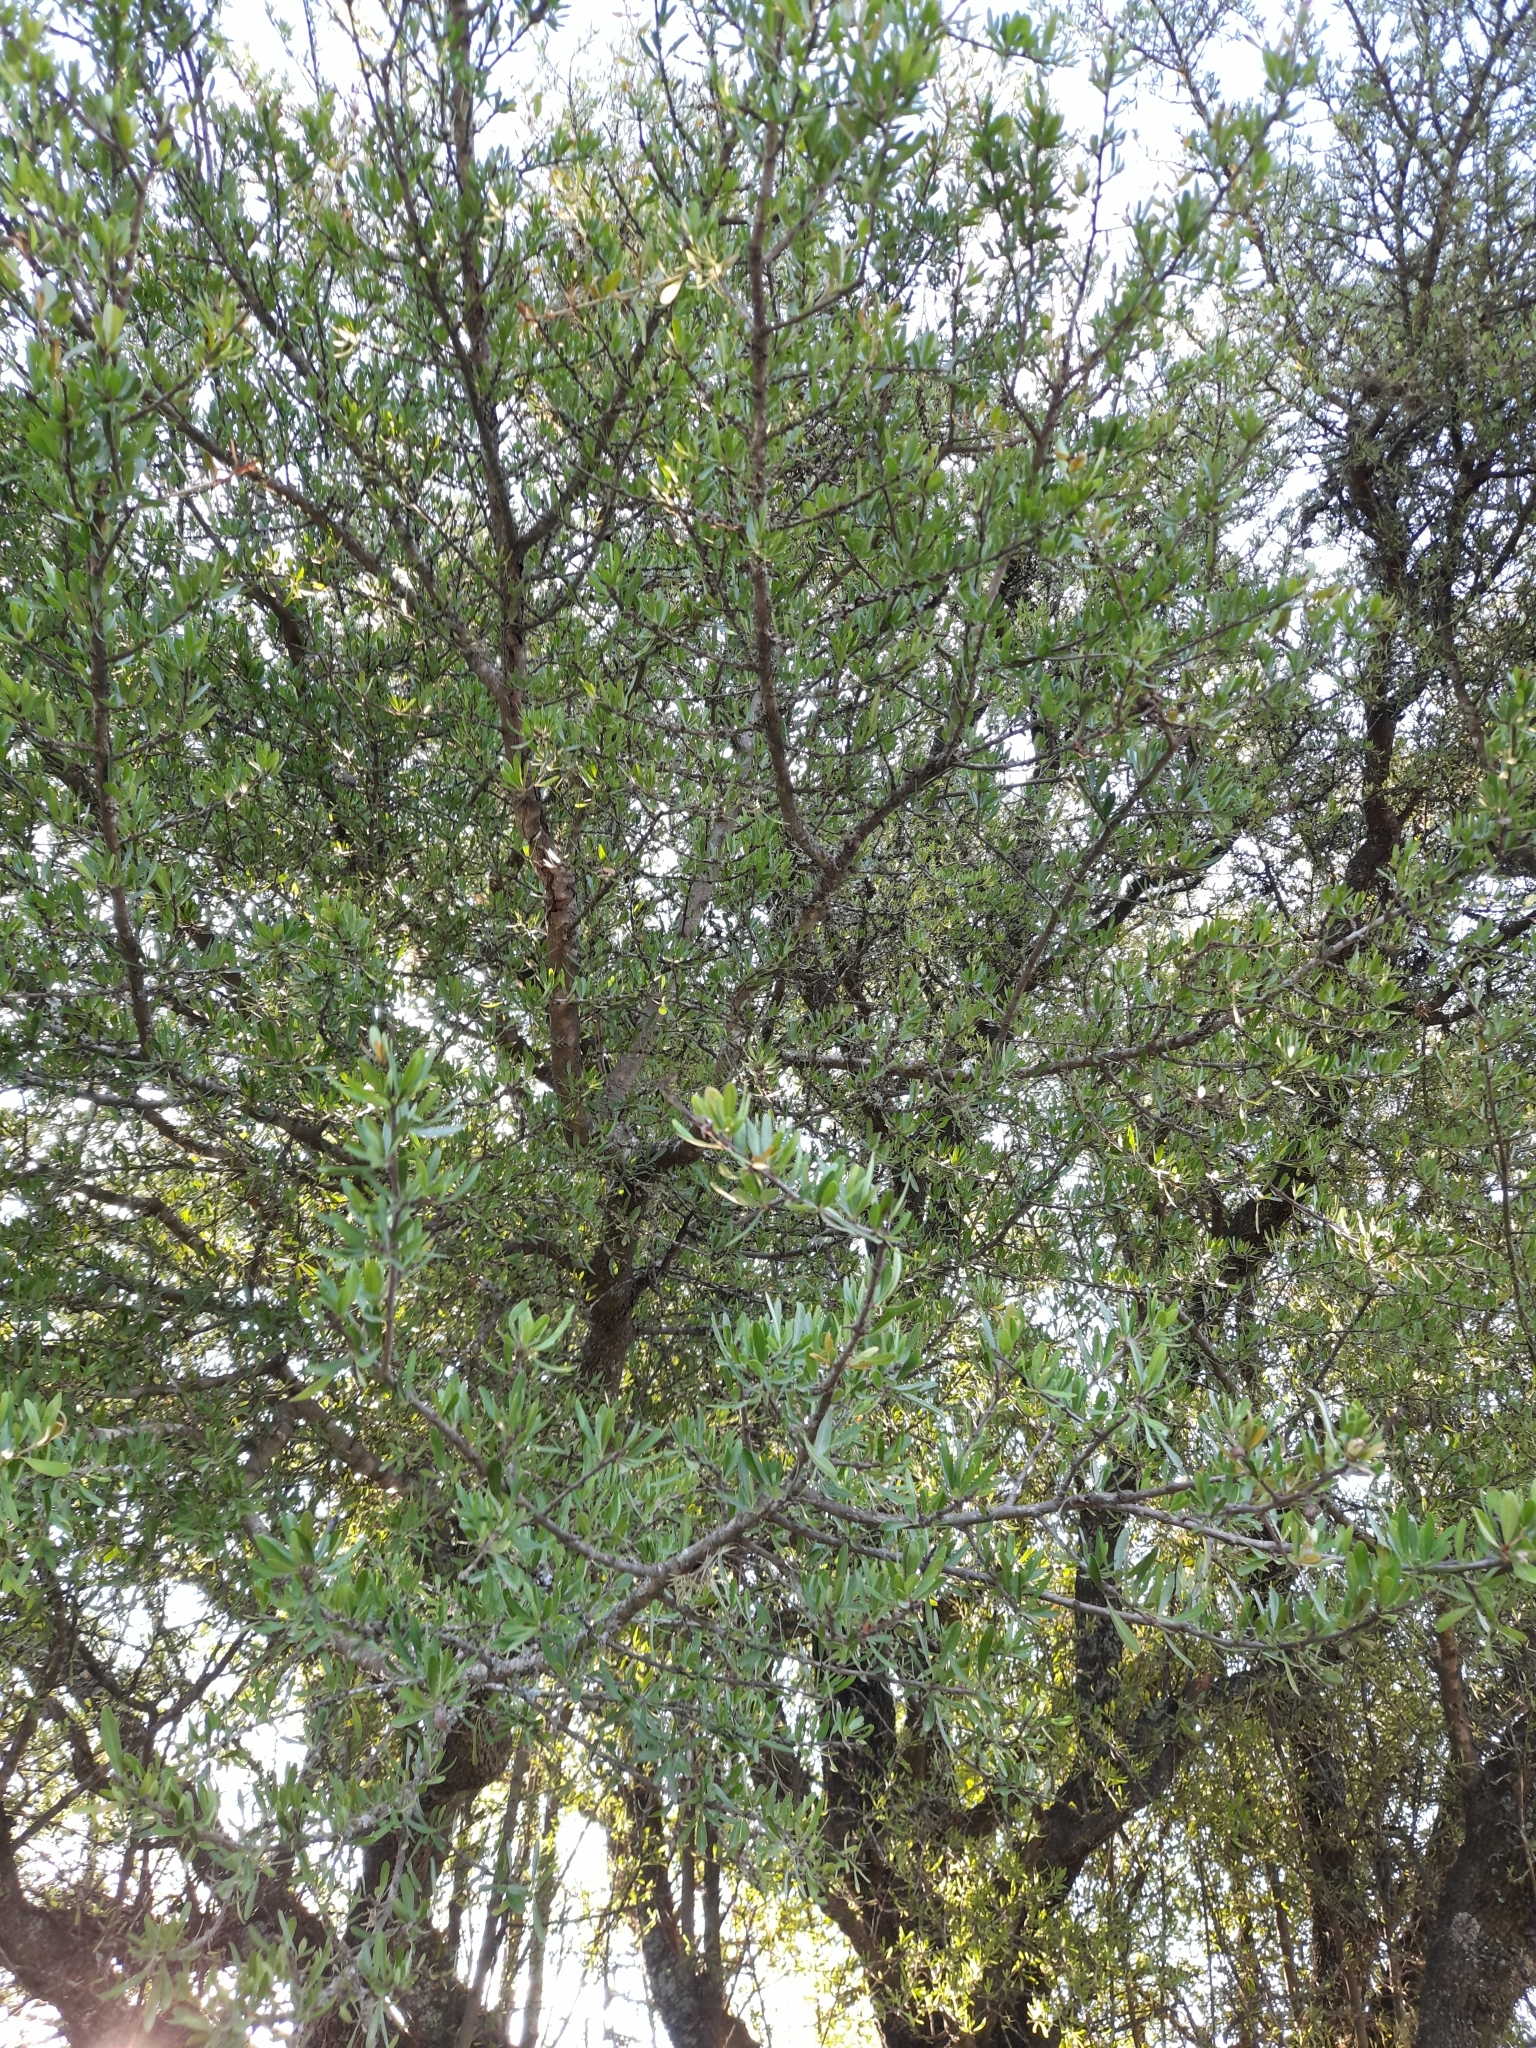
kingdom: Plantae
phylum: Tracheophyta
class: Magnoliopsida
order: Lamiales
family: Bignoniaceae
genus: Tabebuia
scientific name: Tabebuia nodosa
